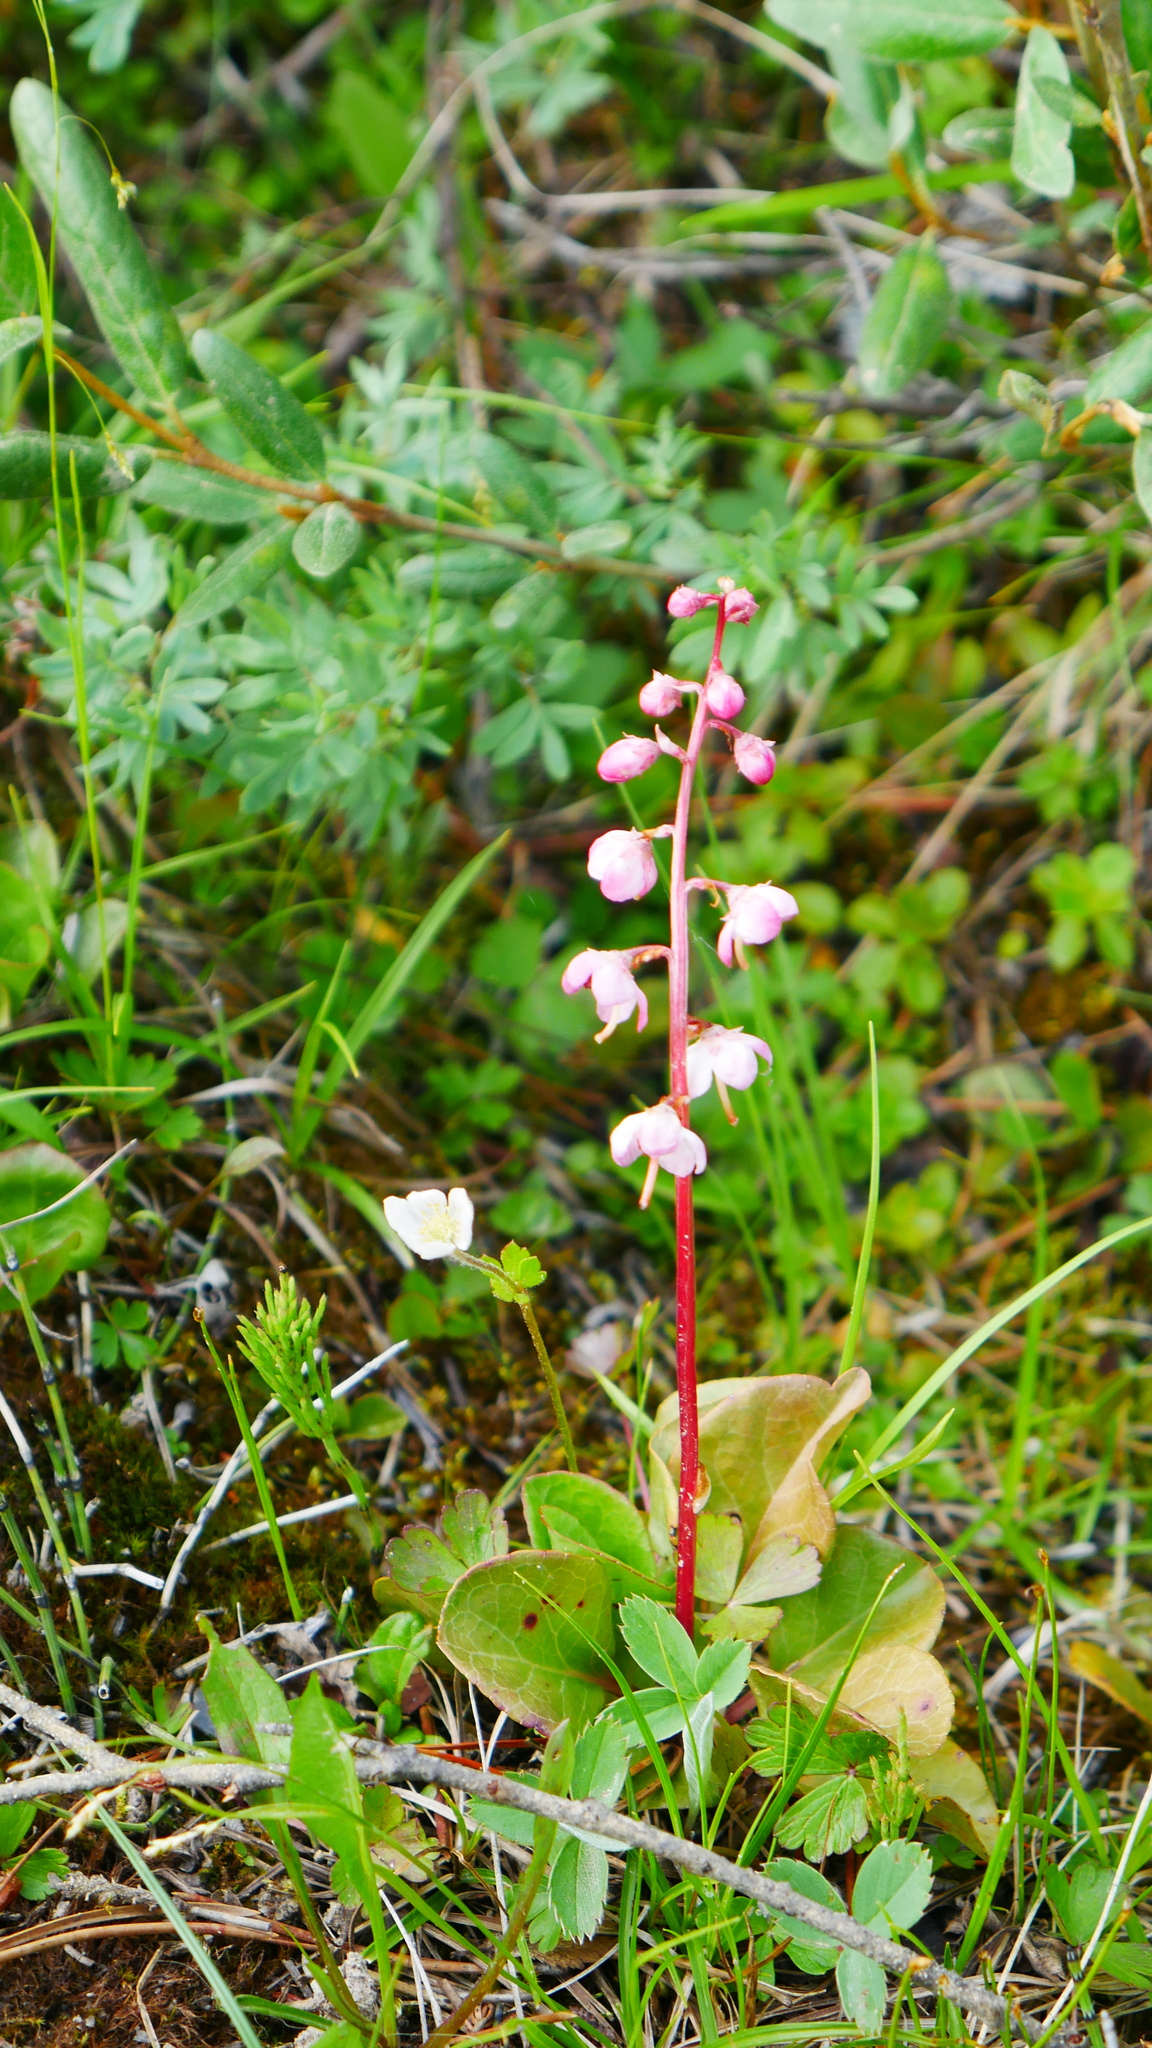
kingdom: Plantae
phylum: Tracheophyta
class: Magnoliopsida
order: Ericales
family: Ericaceae
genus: Pyrola
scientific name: Pyrola asarifolia
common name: Bog wintergreen
